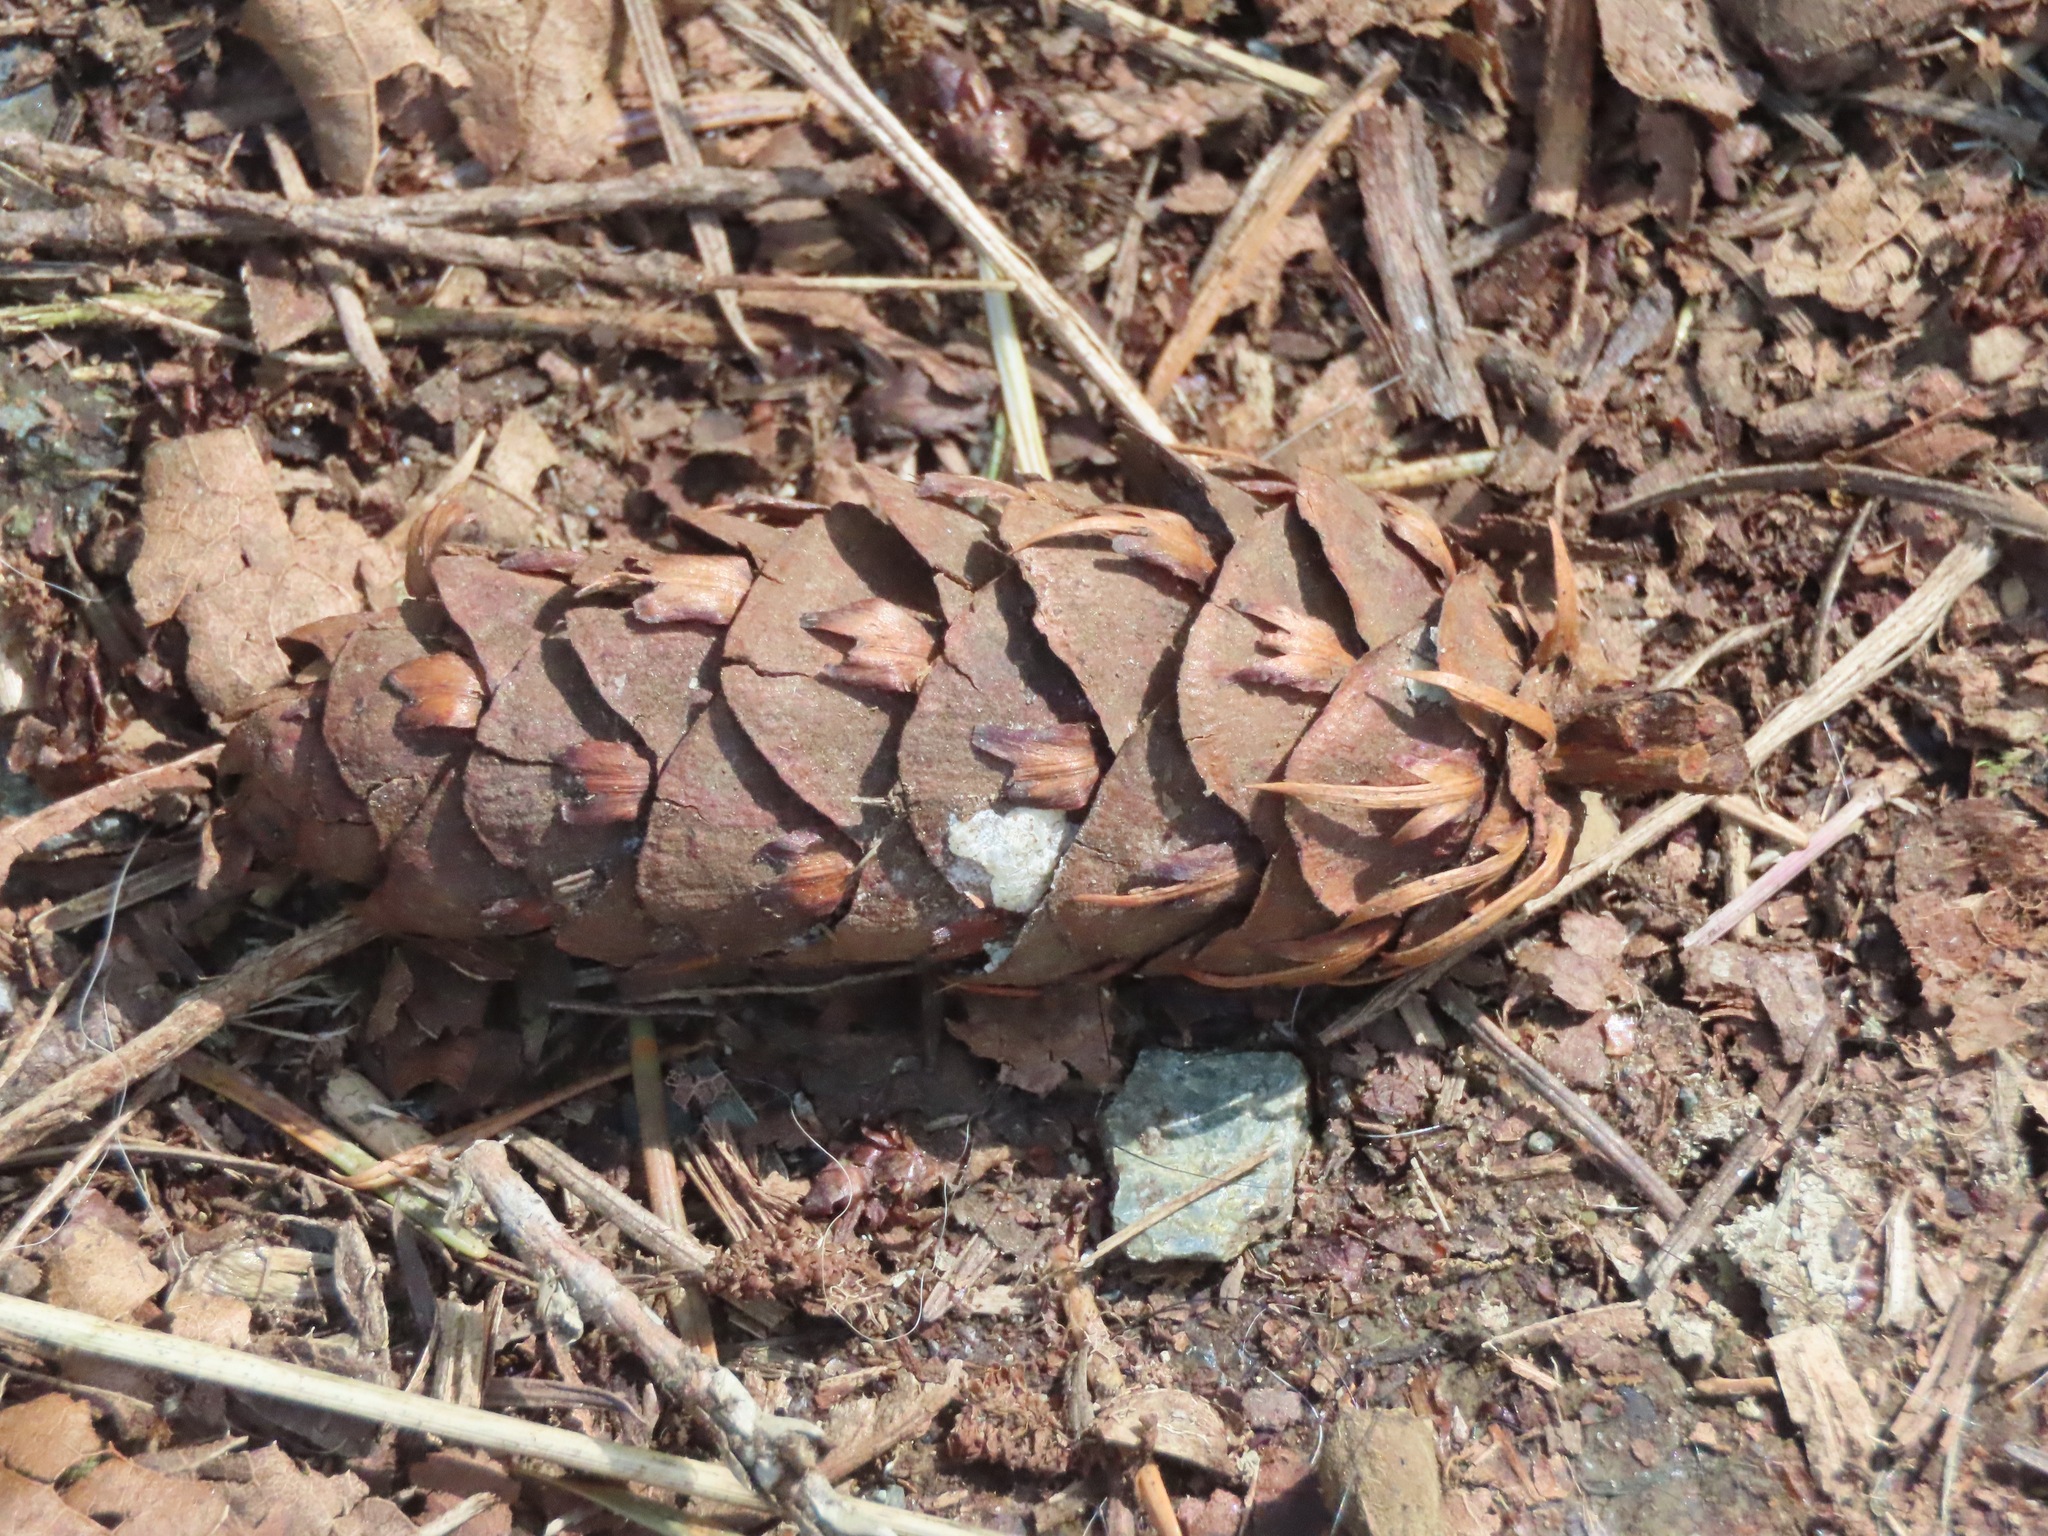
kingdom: Plantae
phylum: Tracheophyta
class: Pinopsida
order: Pinales
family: Pinaceae
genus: Pseudotsuga
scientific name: Pseudotsuga menziesii
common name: Douglas fir
